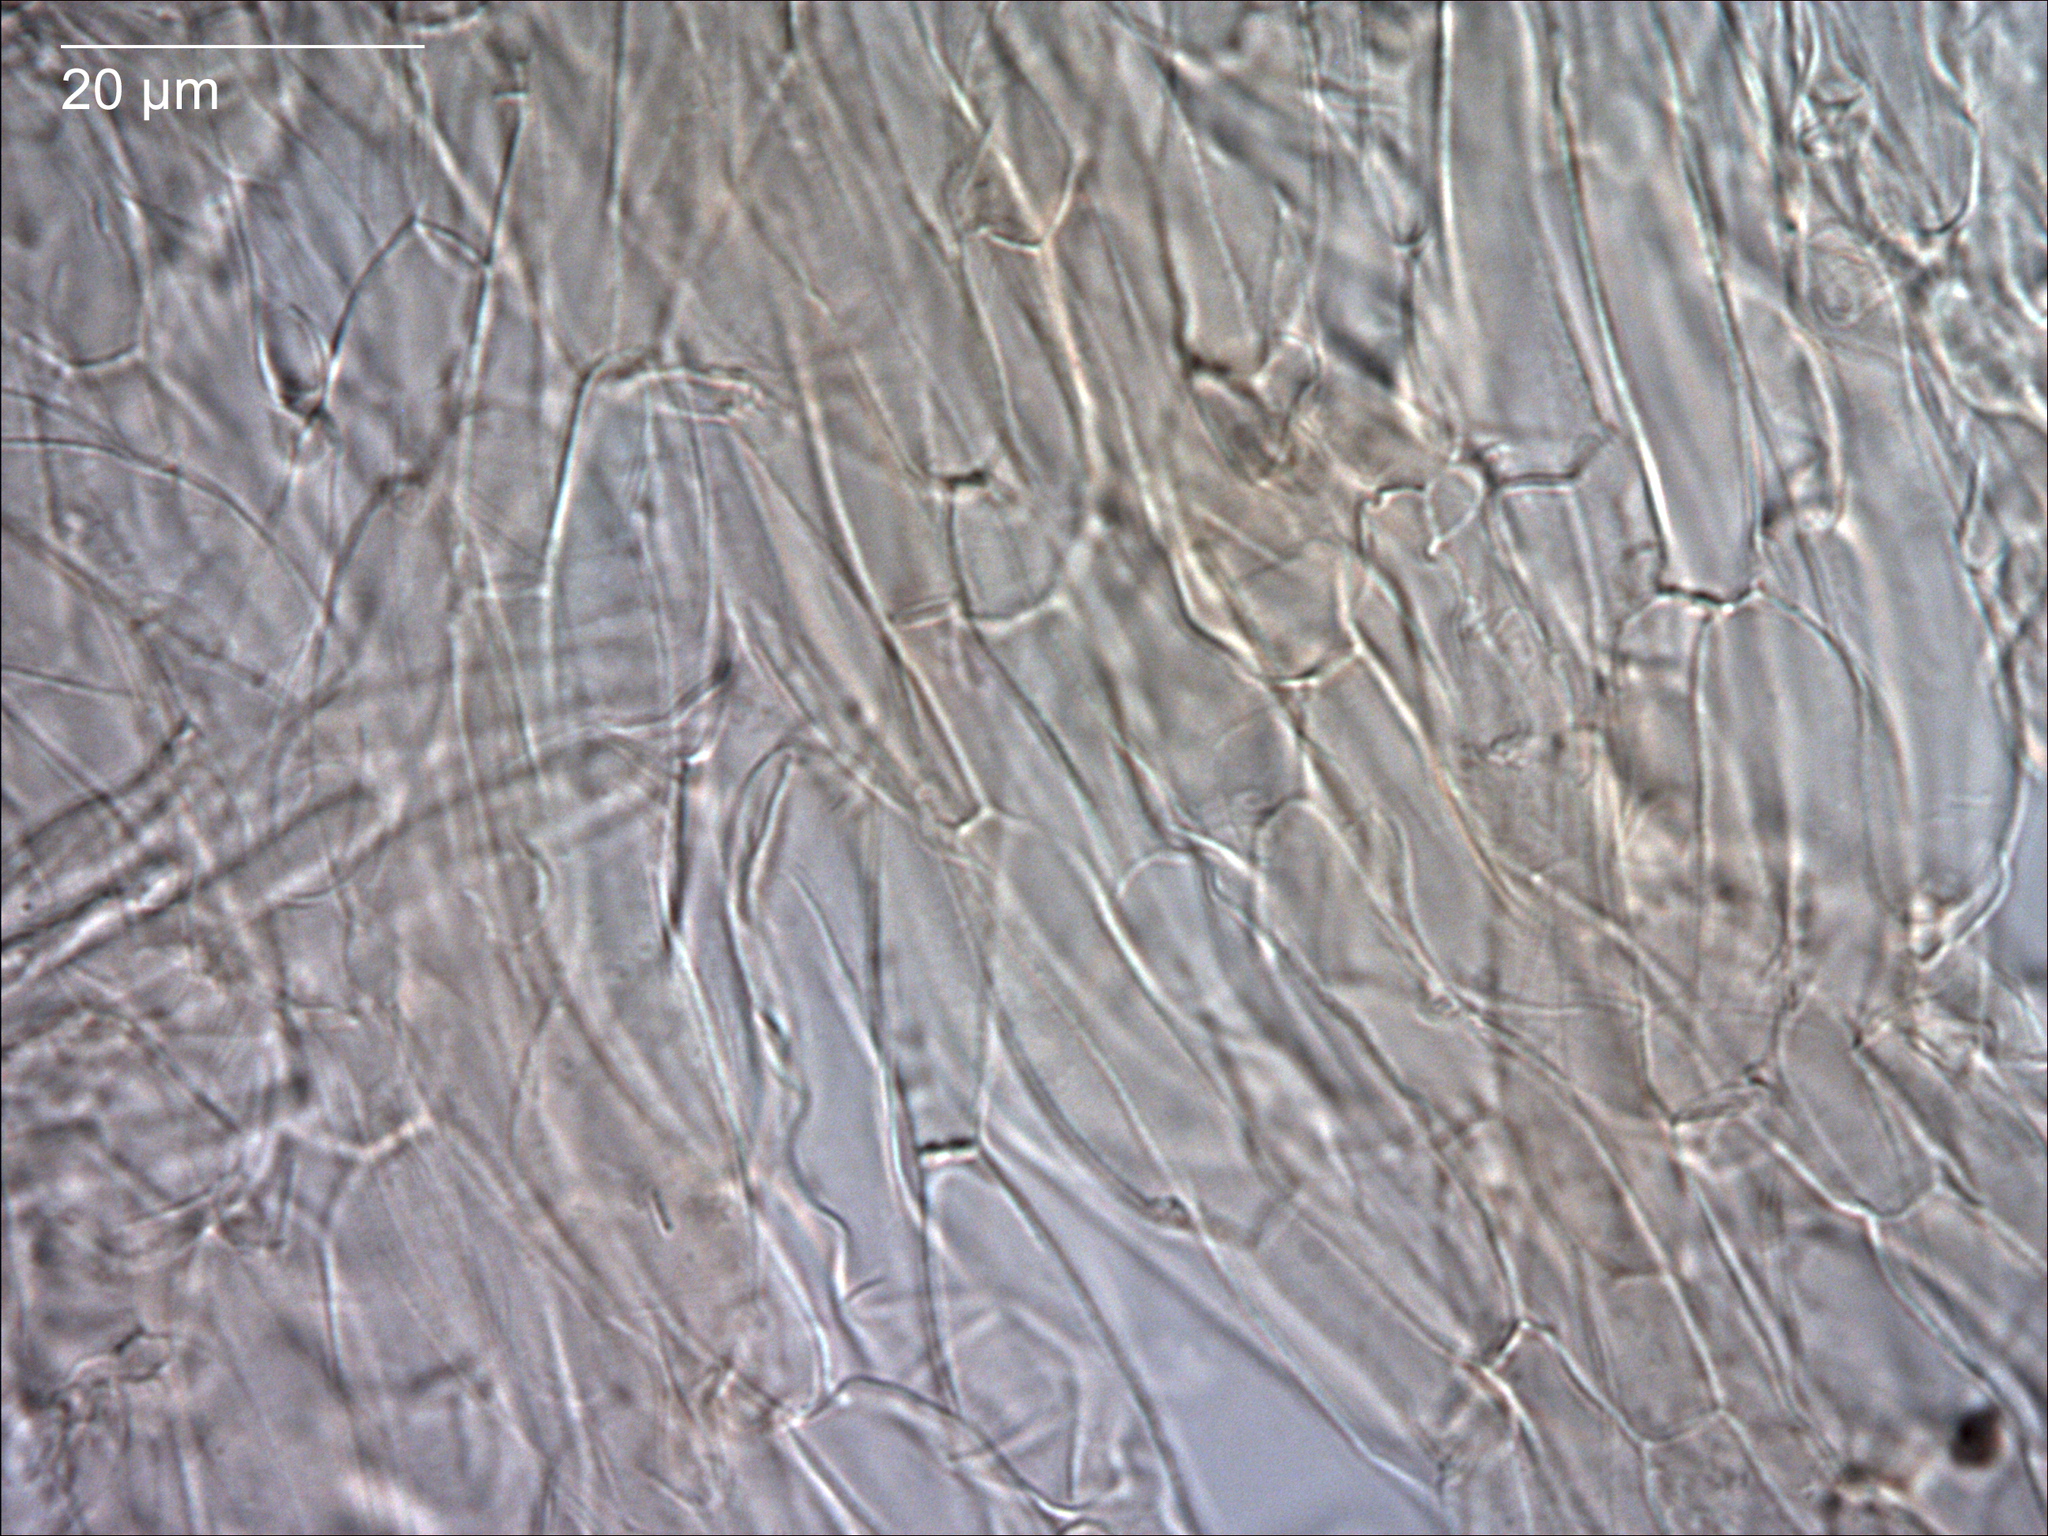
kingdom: Fungi
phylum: Basidiomycota
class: Agaricomycetes
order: Agaricales
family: Hygrophoraceae
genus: Cuphophyllus
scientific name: Cuphophyllus
